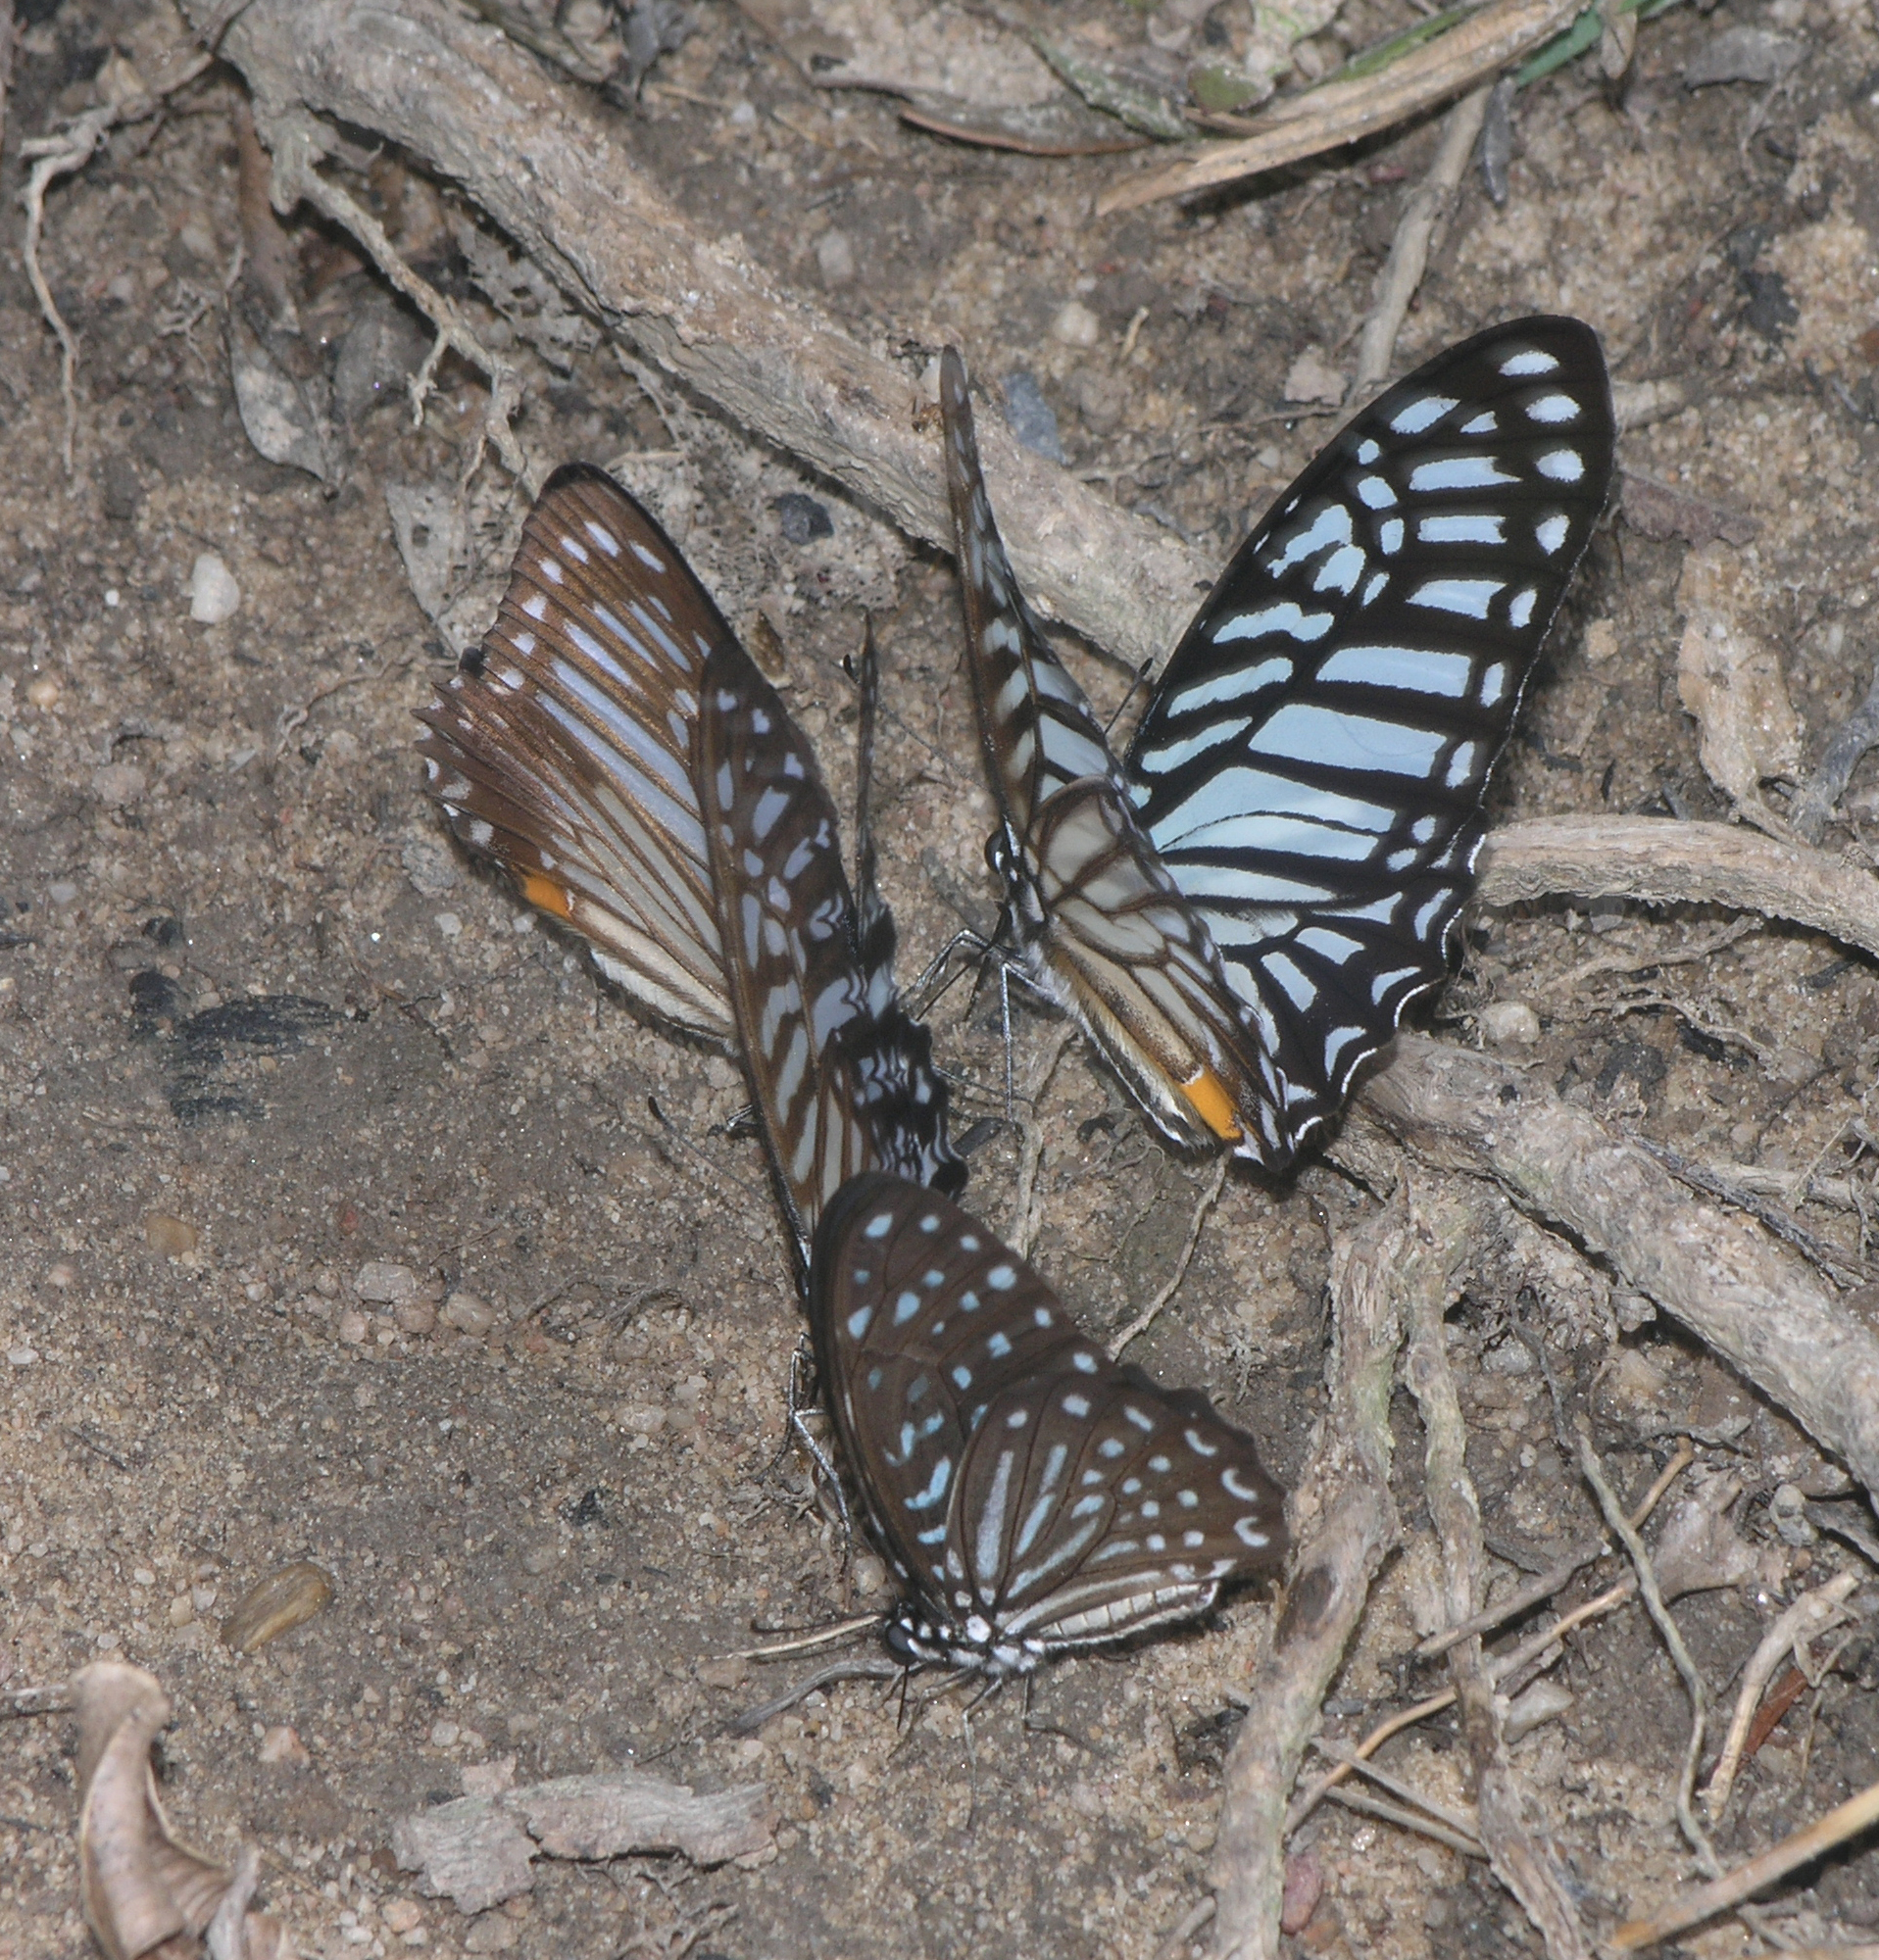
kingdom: Animalia
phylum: Arthropoda
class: Insecta
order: Lepidoptera
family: Papilionidae
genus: Graphium
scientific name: Graphium xenocles
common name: Great zebra
